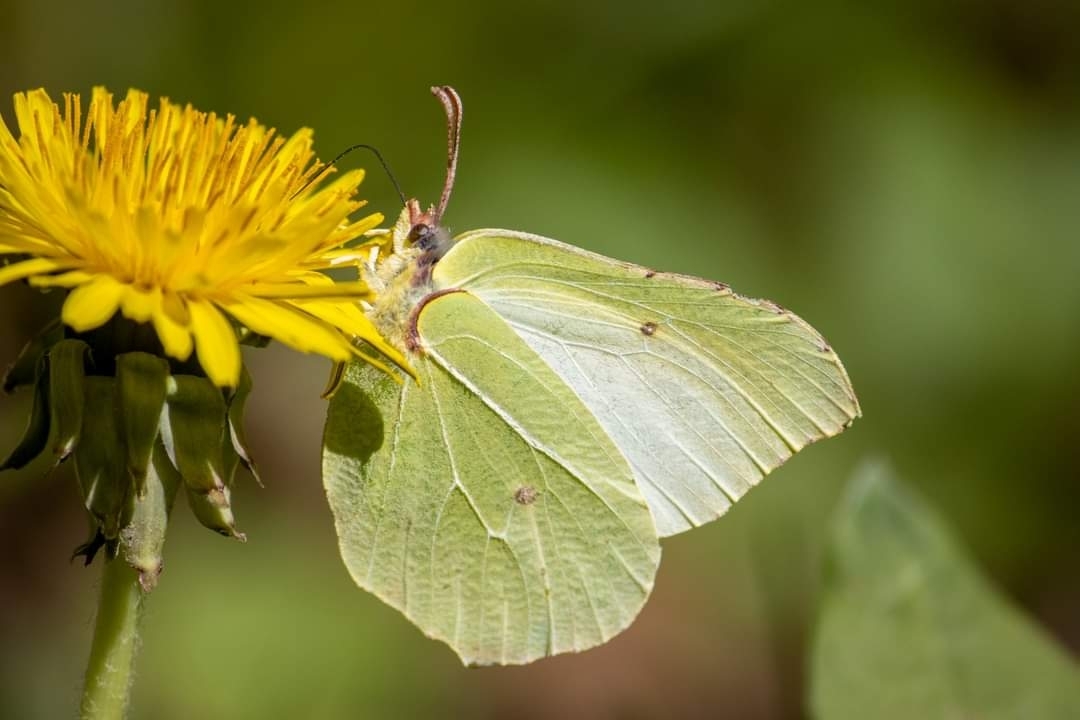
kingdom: Animalia
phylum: Arthropoda
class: Insecta
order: Lepidoptera
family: Pieridae
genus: Gonepteryx
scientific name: Gonepteryx rhamni
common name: Brimstone
